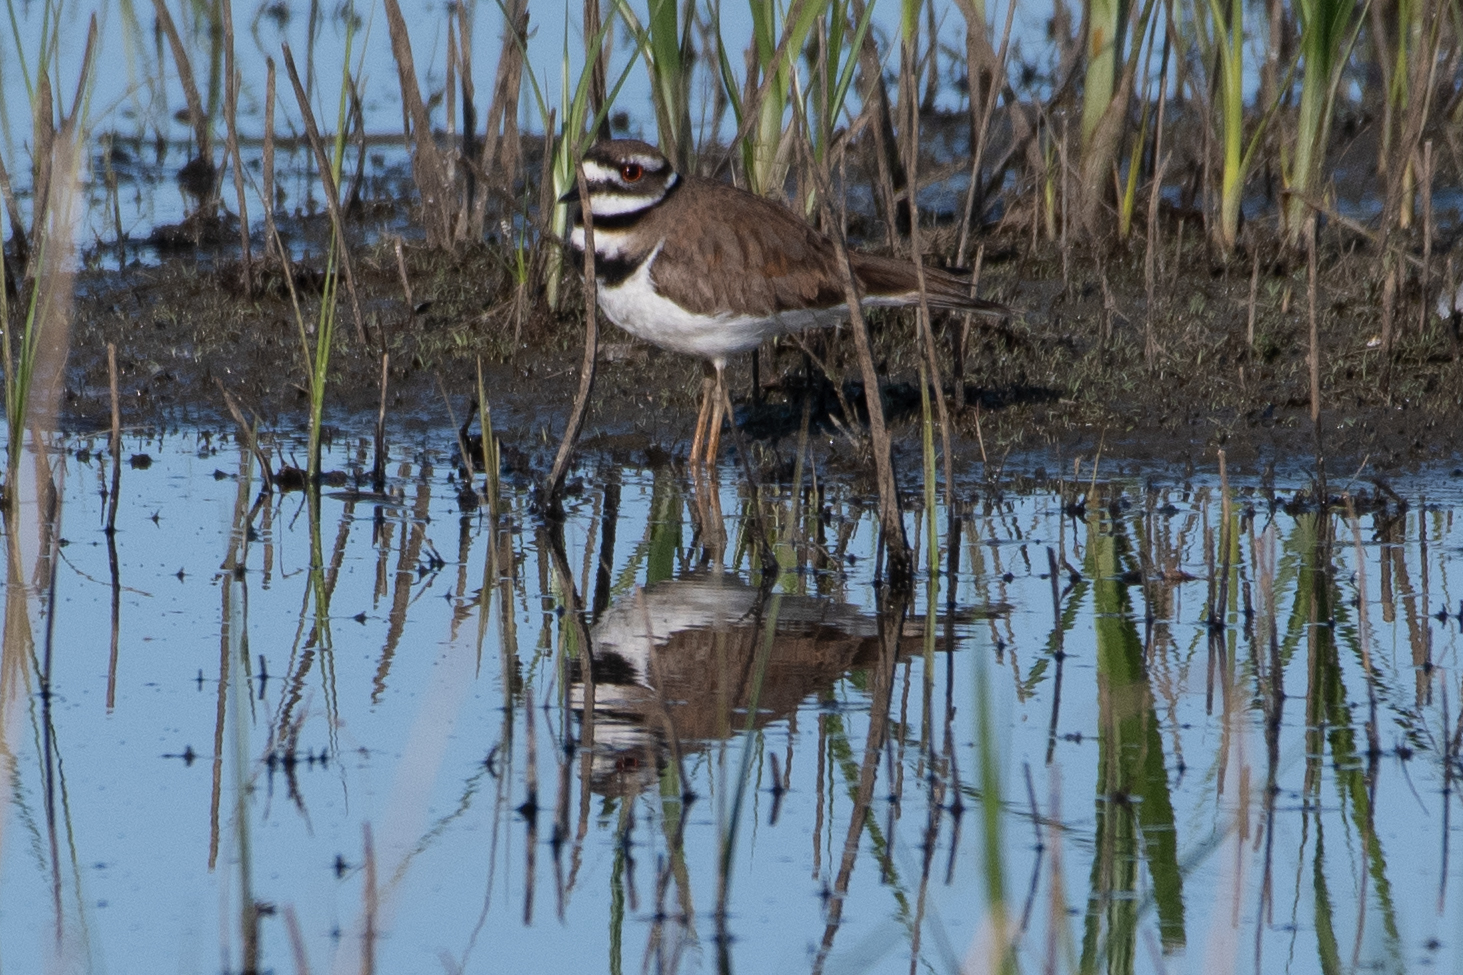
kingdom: Animalia
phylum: Chordata
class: Aves
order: Charadriiformes
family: Charadriidae
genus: Charadrius
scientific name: Charadrius vociferus
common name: Killdeer
